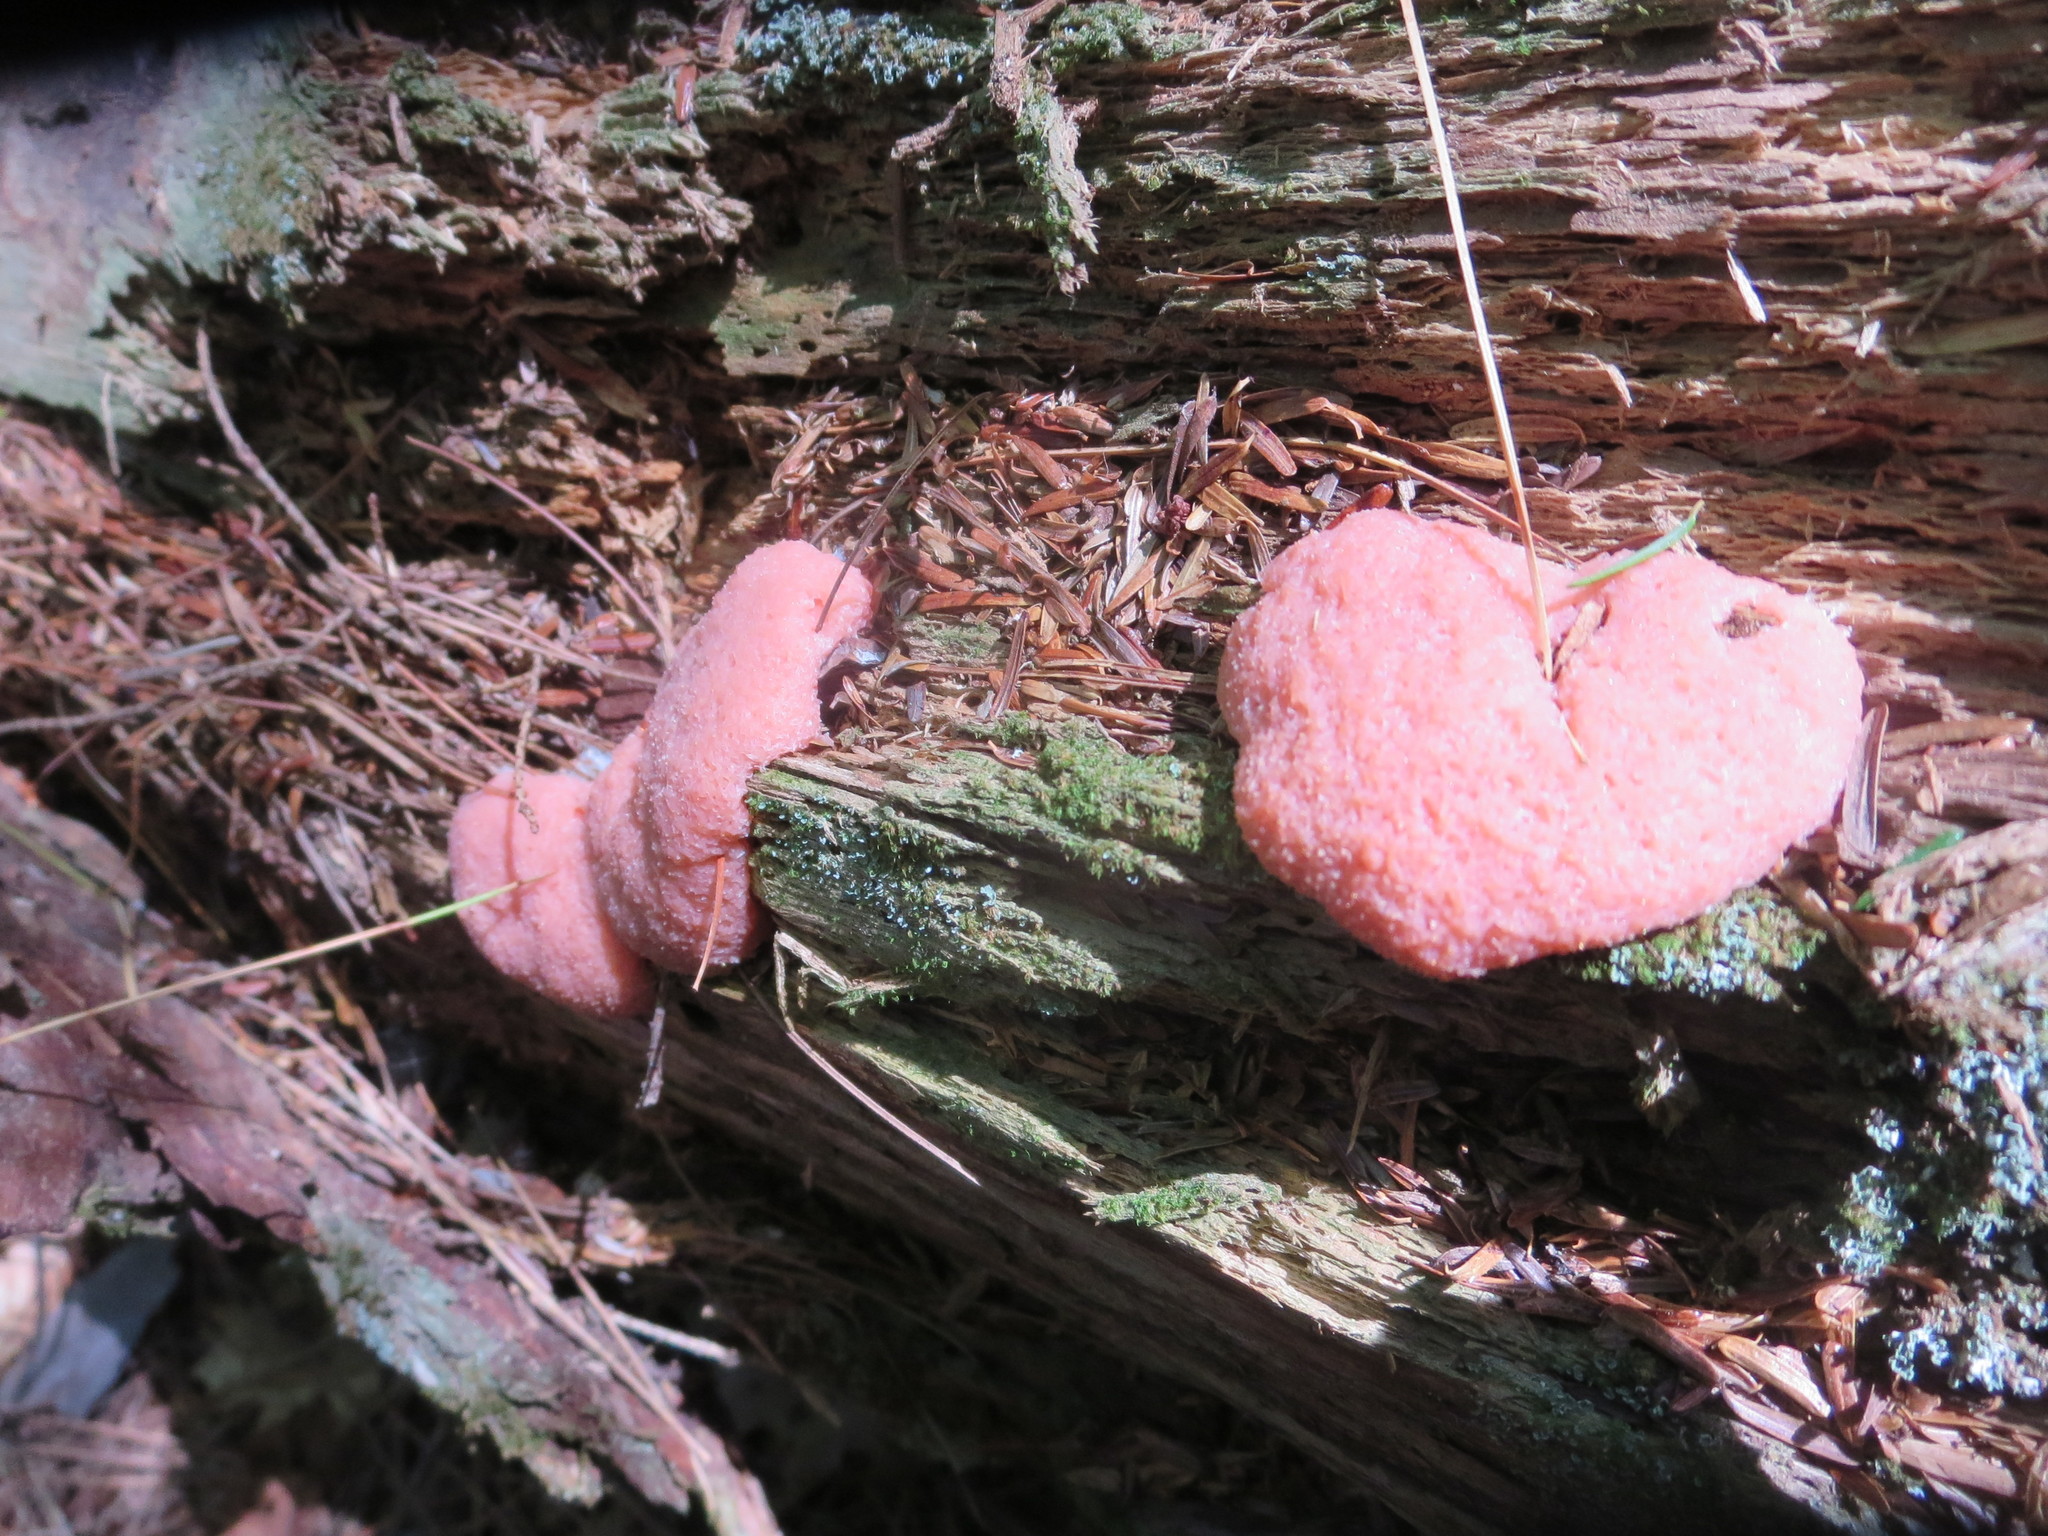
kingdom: Protozoa
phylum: Mycetozoa
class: Myxomycetes
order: Cribrariales
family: Tubiferaceae
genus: Tubifera
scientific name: Tubifera ferruginosa
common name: Red raspberry slime mold
